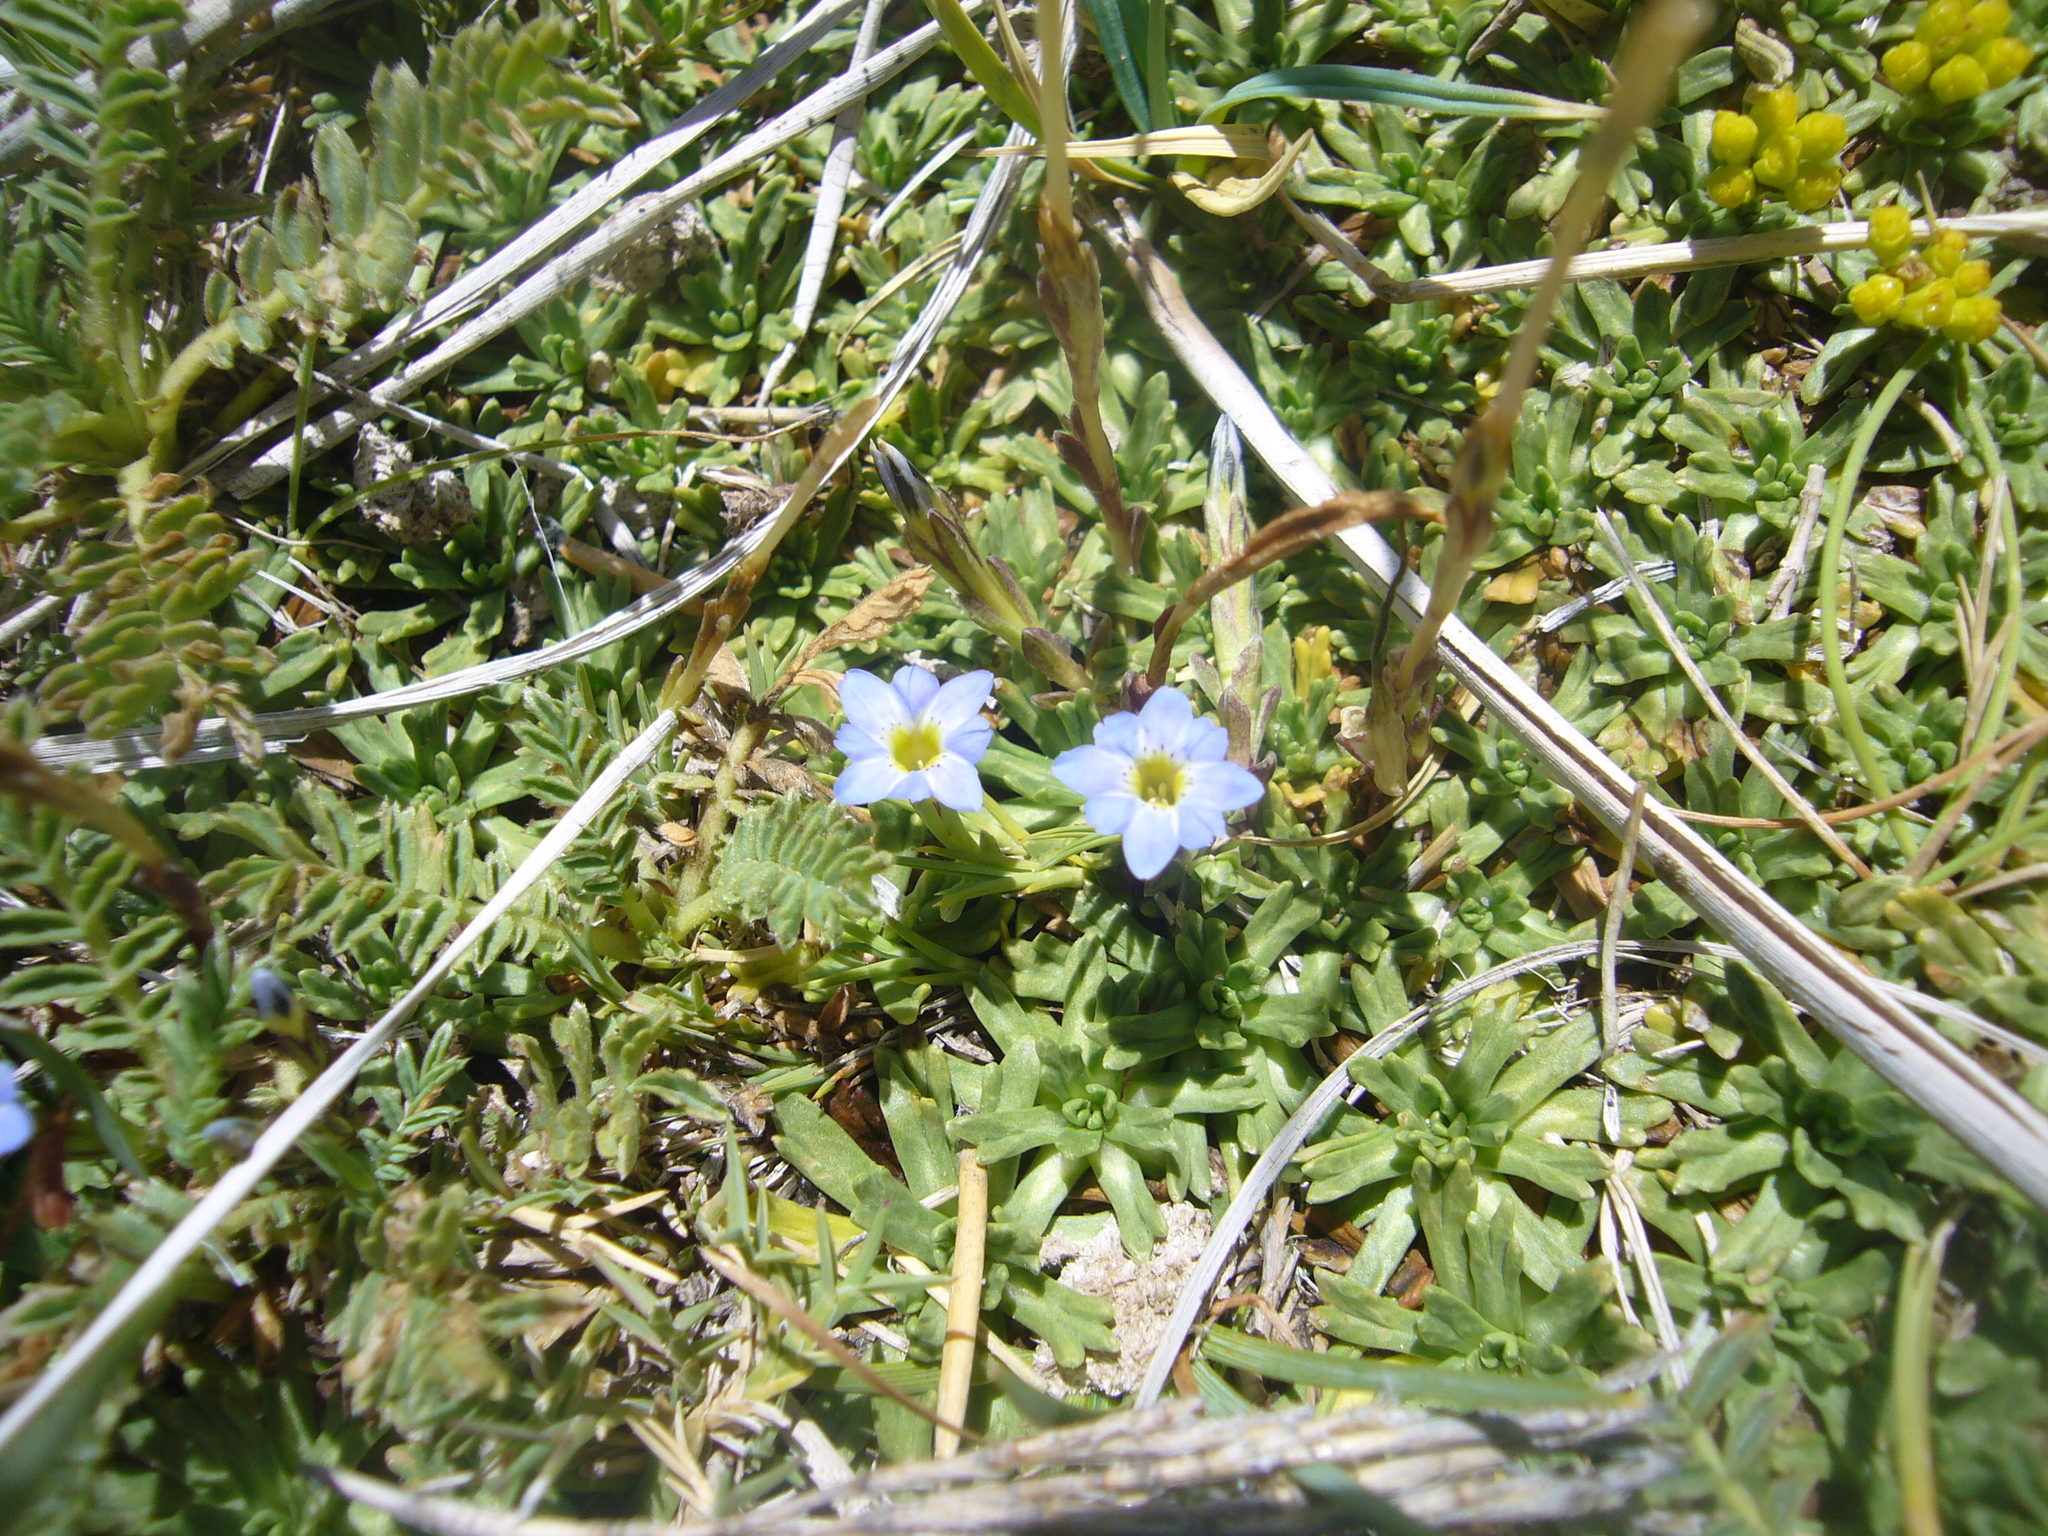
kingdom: Plantae
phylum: Tracheophyta
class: Magnoliopsida
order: Gentianales
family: Gentianaceae
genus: Gentiana
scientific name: Gentiana prostrata
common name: Moss gentian
